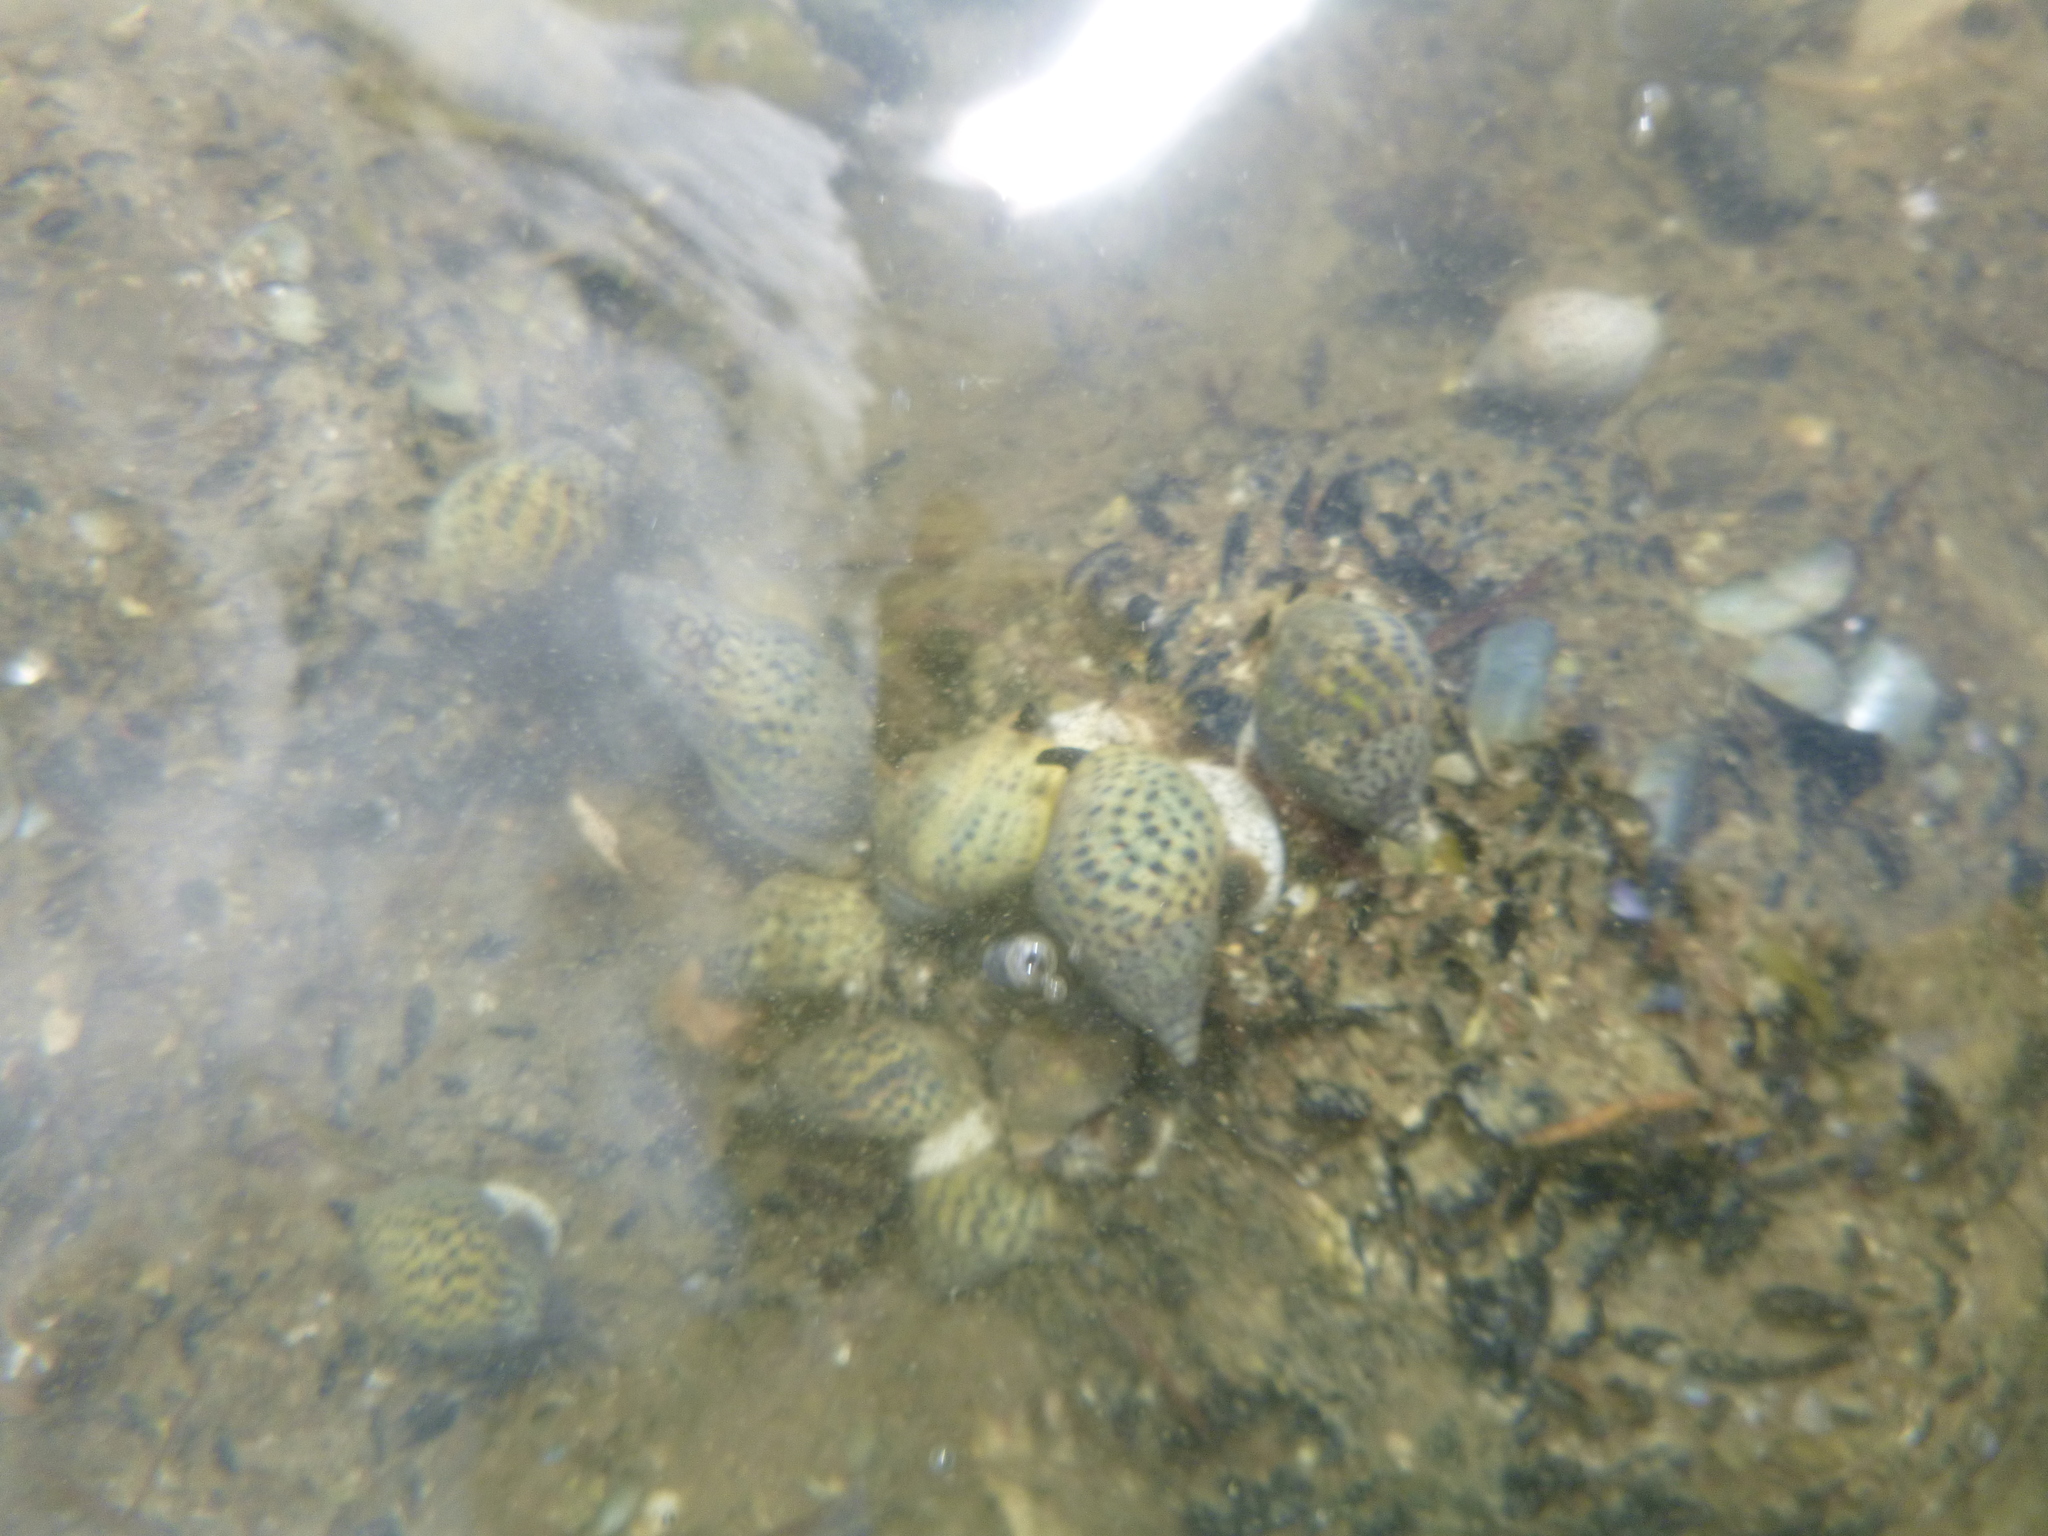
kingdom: Animalia
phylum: Mollusca
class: Gastropoda
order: Neogastropoda
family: Cominellidae
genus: Cominella
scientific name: Cominella maculosa
